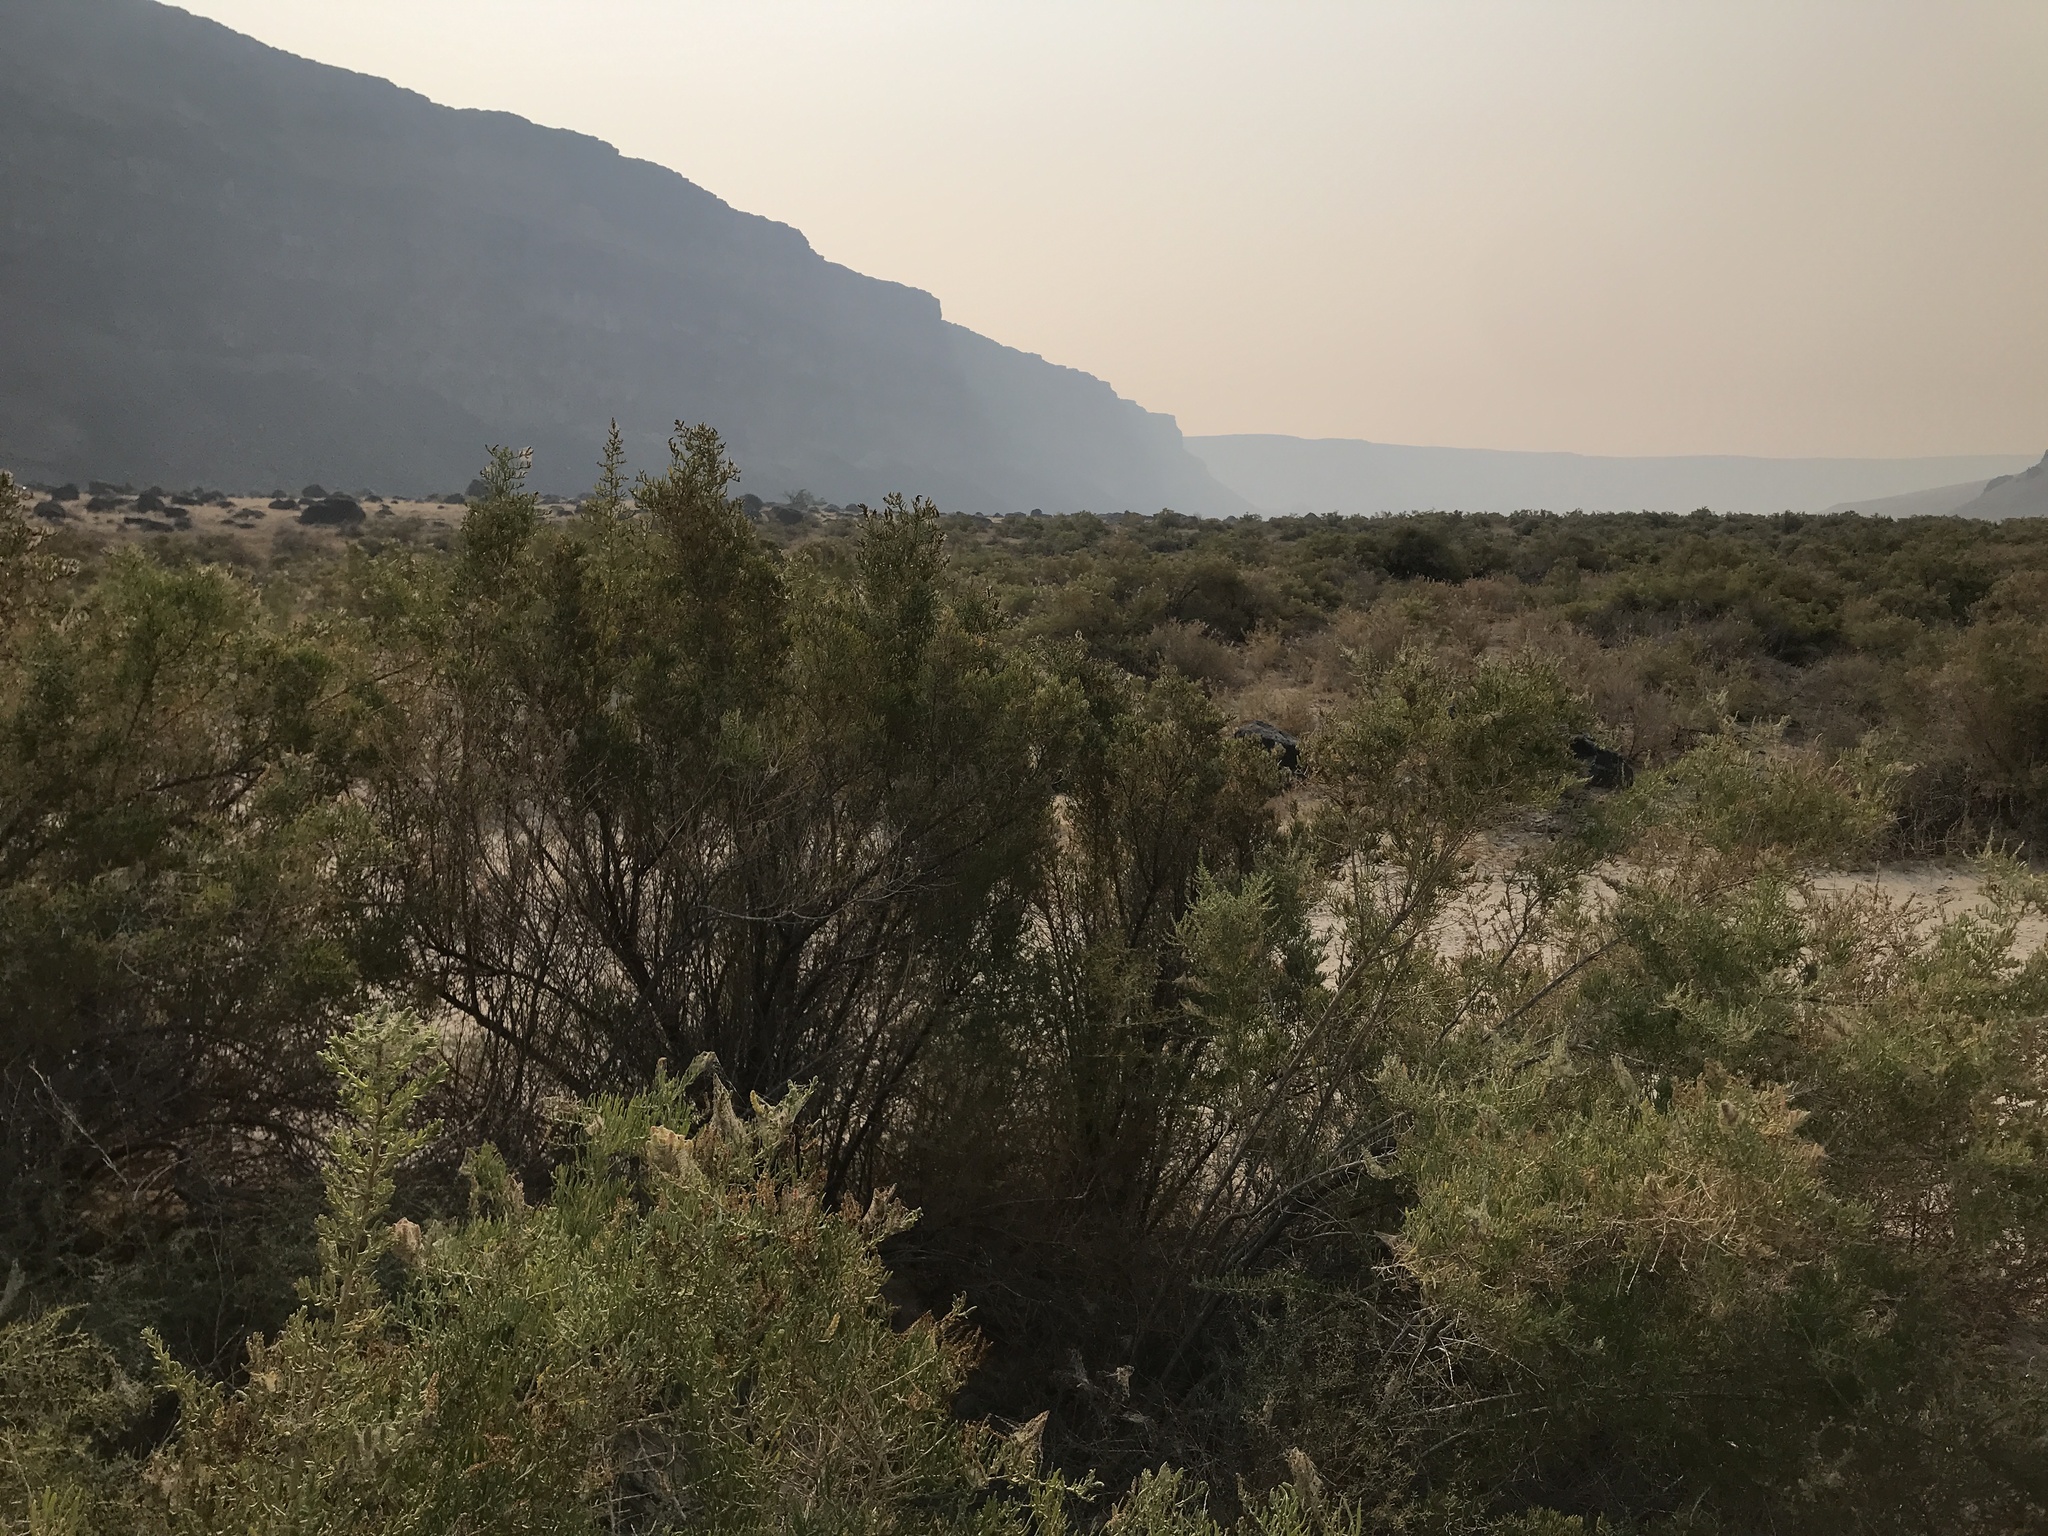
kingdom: Plantae
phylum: Tracheophyta
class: Magnoliopsida
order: Caryophyllales
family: Sarcobataceae
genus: Sarcobatus
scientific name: Sarcobatus vermiculatus
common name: Greasewood
